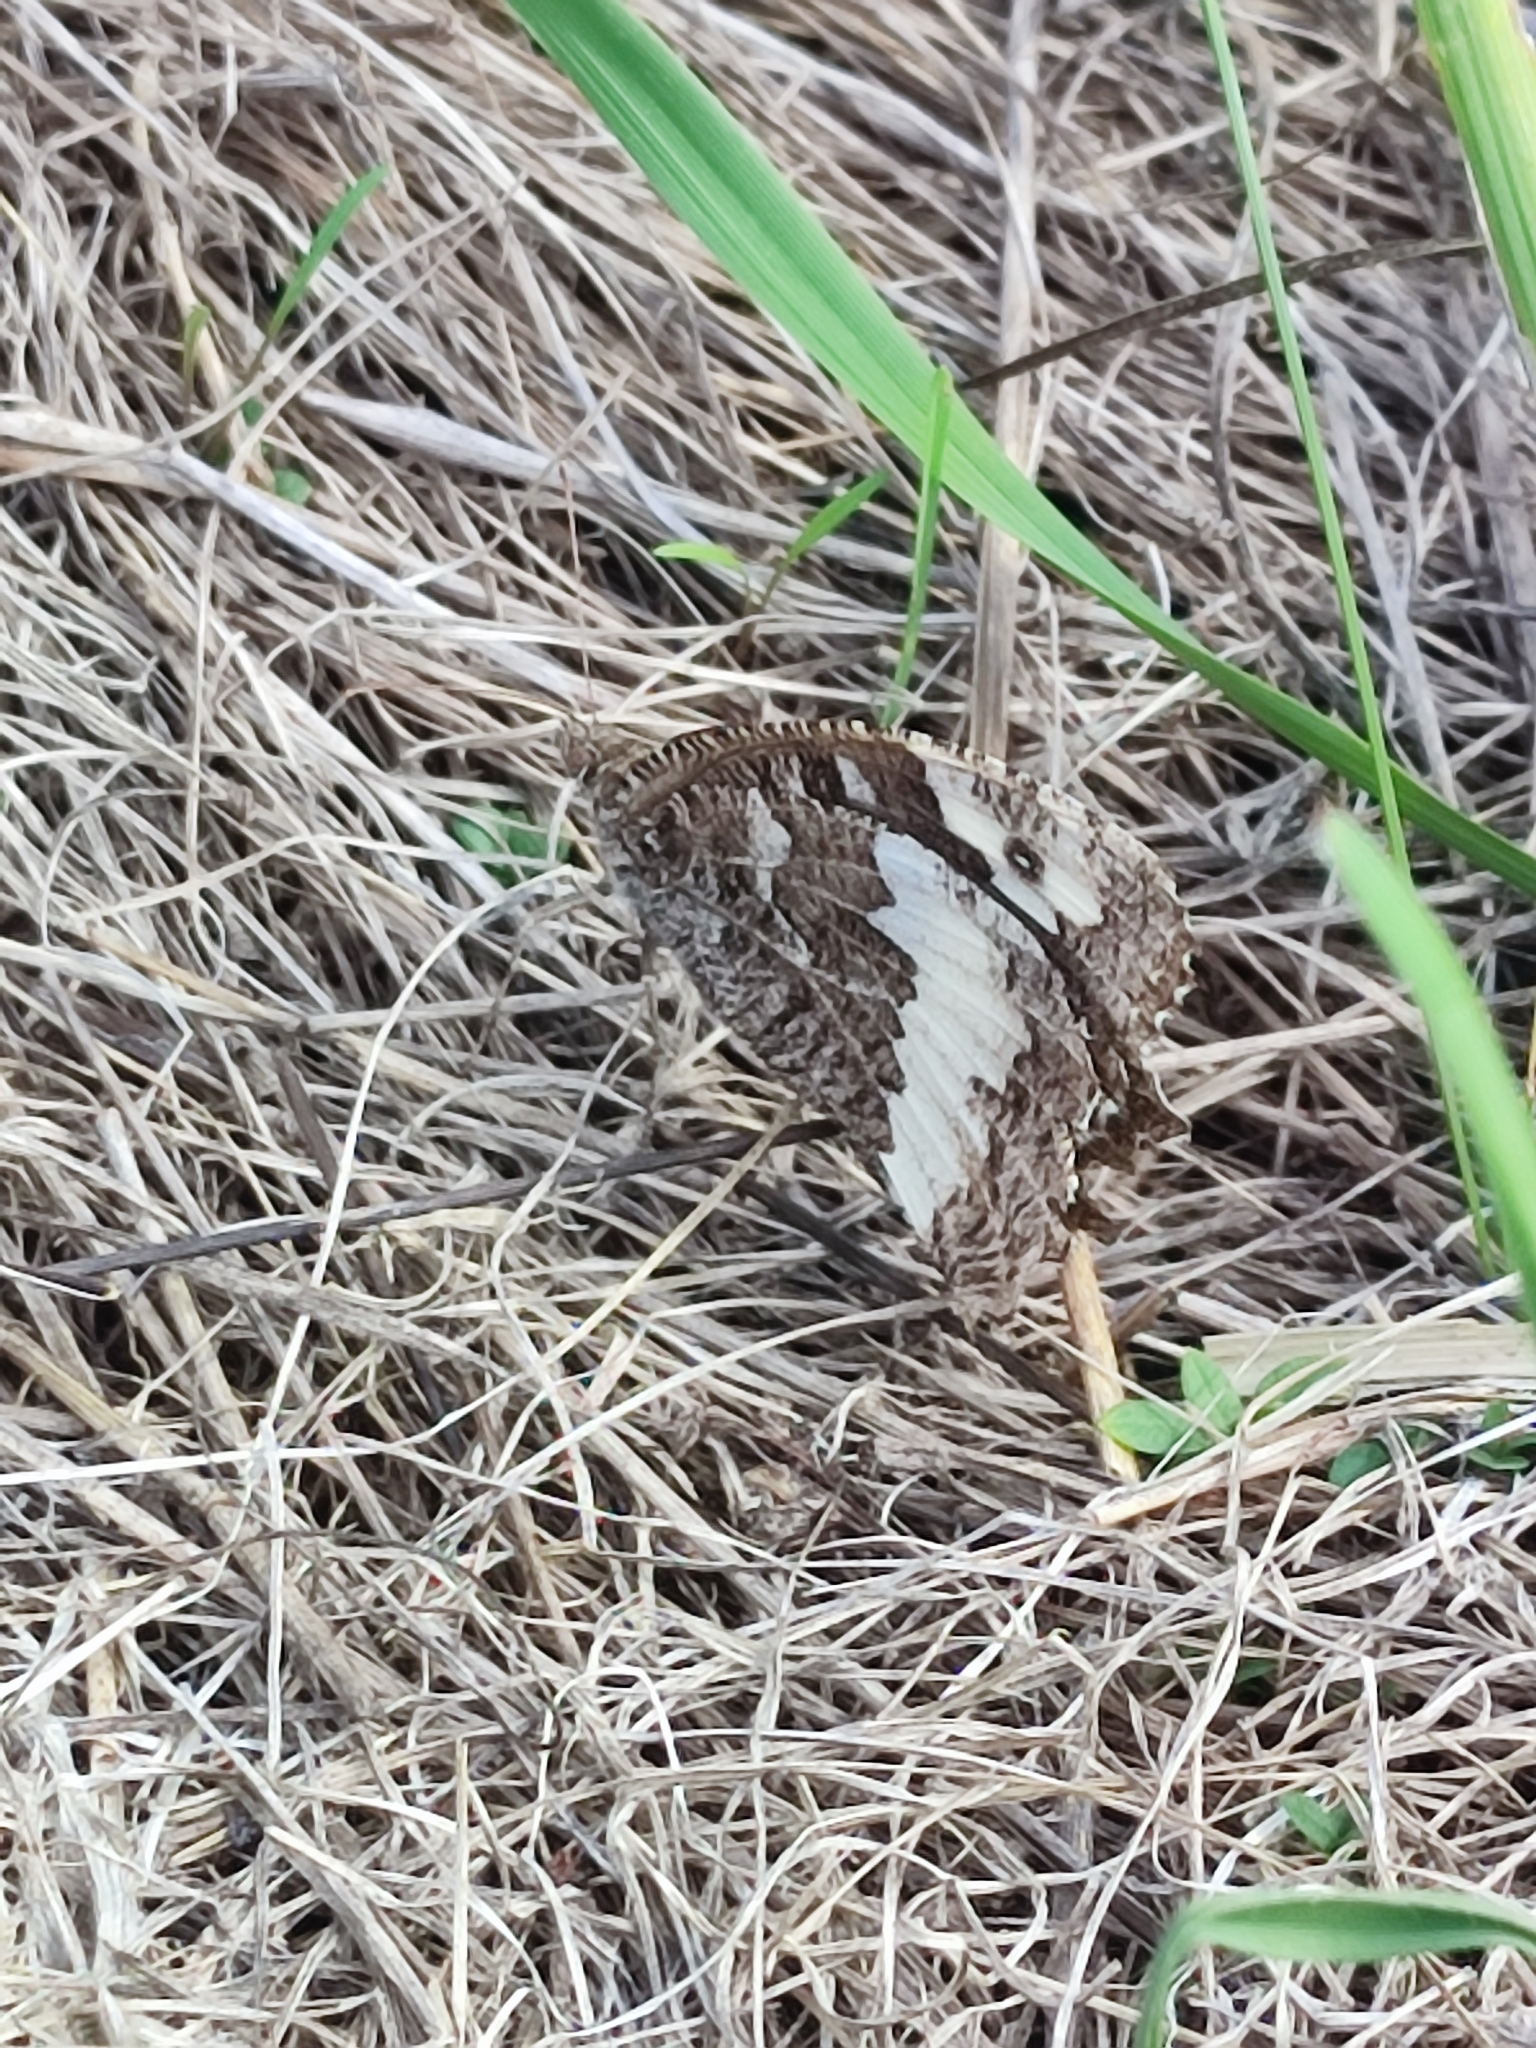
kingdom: Animalia
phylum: Arthropoda
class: Insecta
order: Lepidoptera
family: Lycaenidae
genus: Loweia
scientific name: Loweia tityrus
